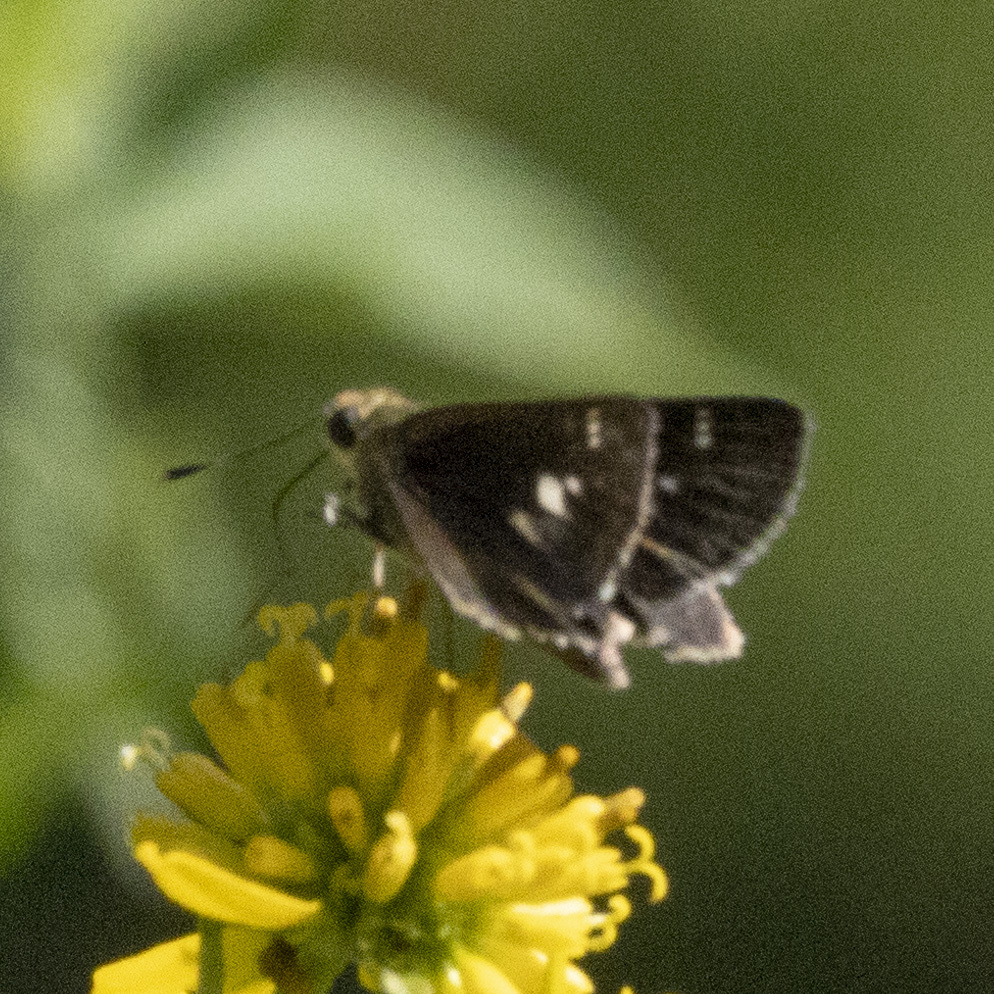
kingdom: Animalia
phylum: Arthropoda
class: Insecta
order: Lepidoptera
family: Hesperiidae
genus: Vernia
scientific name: Vernia verna
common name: Little glassywing
